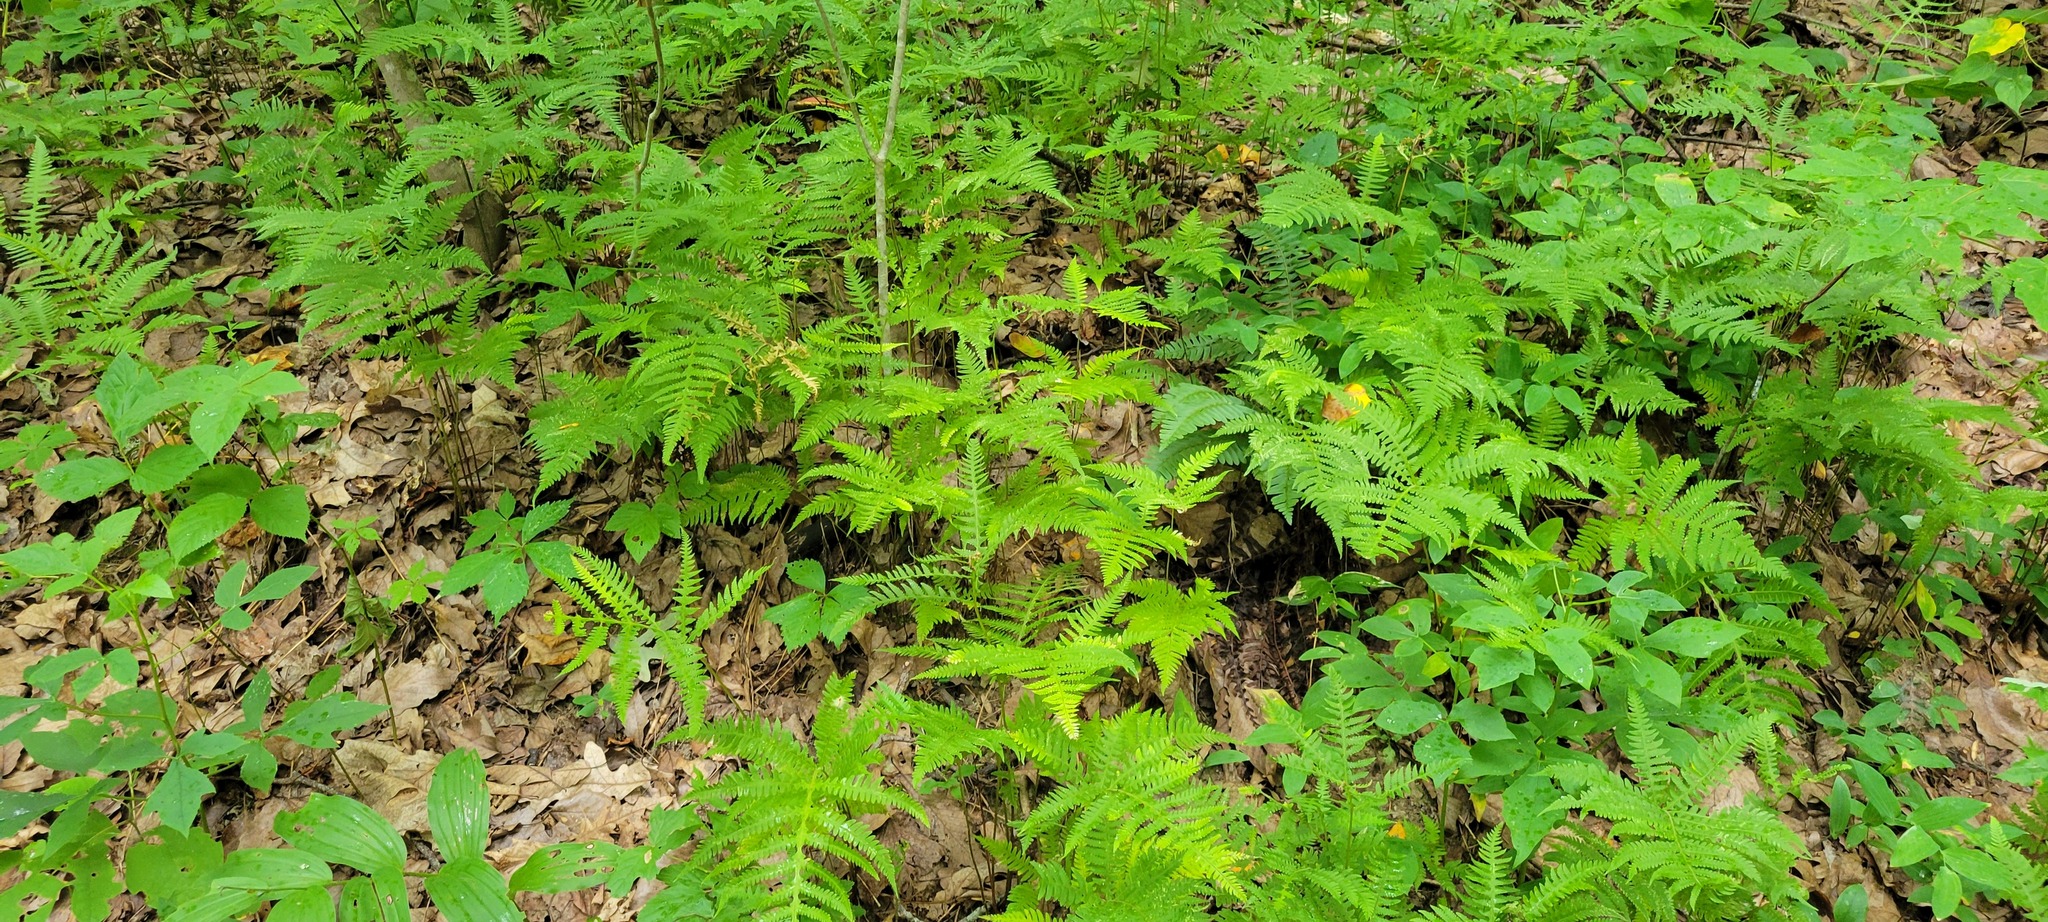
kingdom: Plantae
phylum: Tracheophyta
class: Polypodiopsida
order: Polypodiales
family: Thelypteridaceae
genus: Phegopteris
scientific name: Phegopteris hexagonoptera
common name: Broad beech fern
